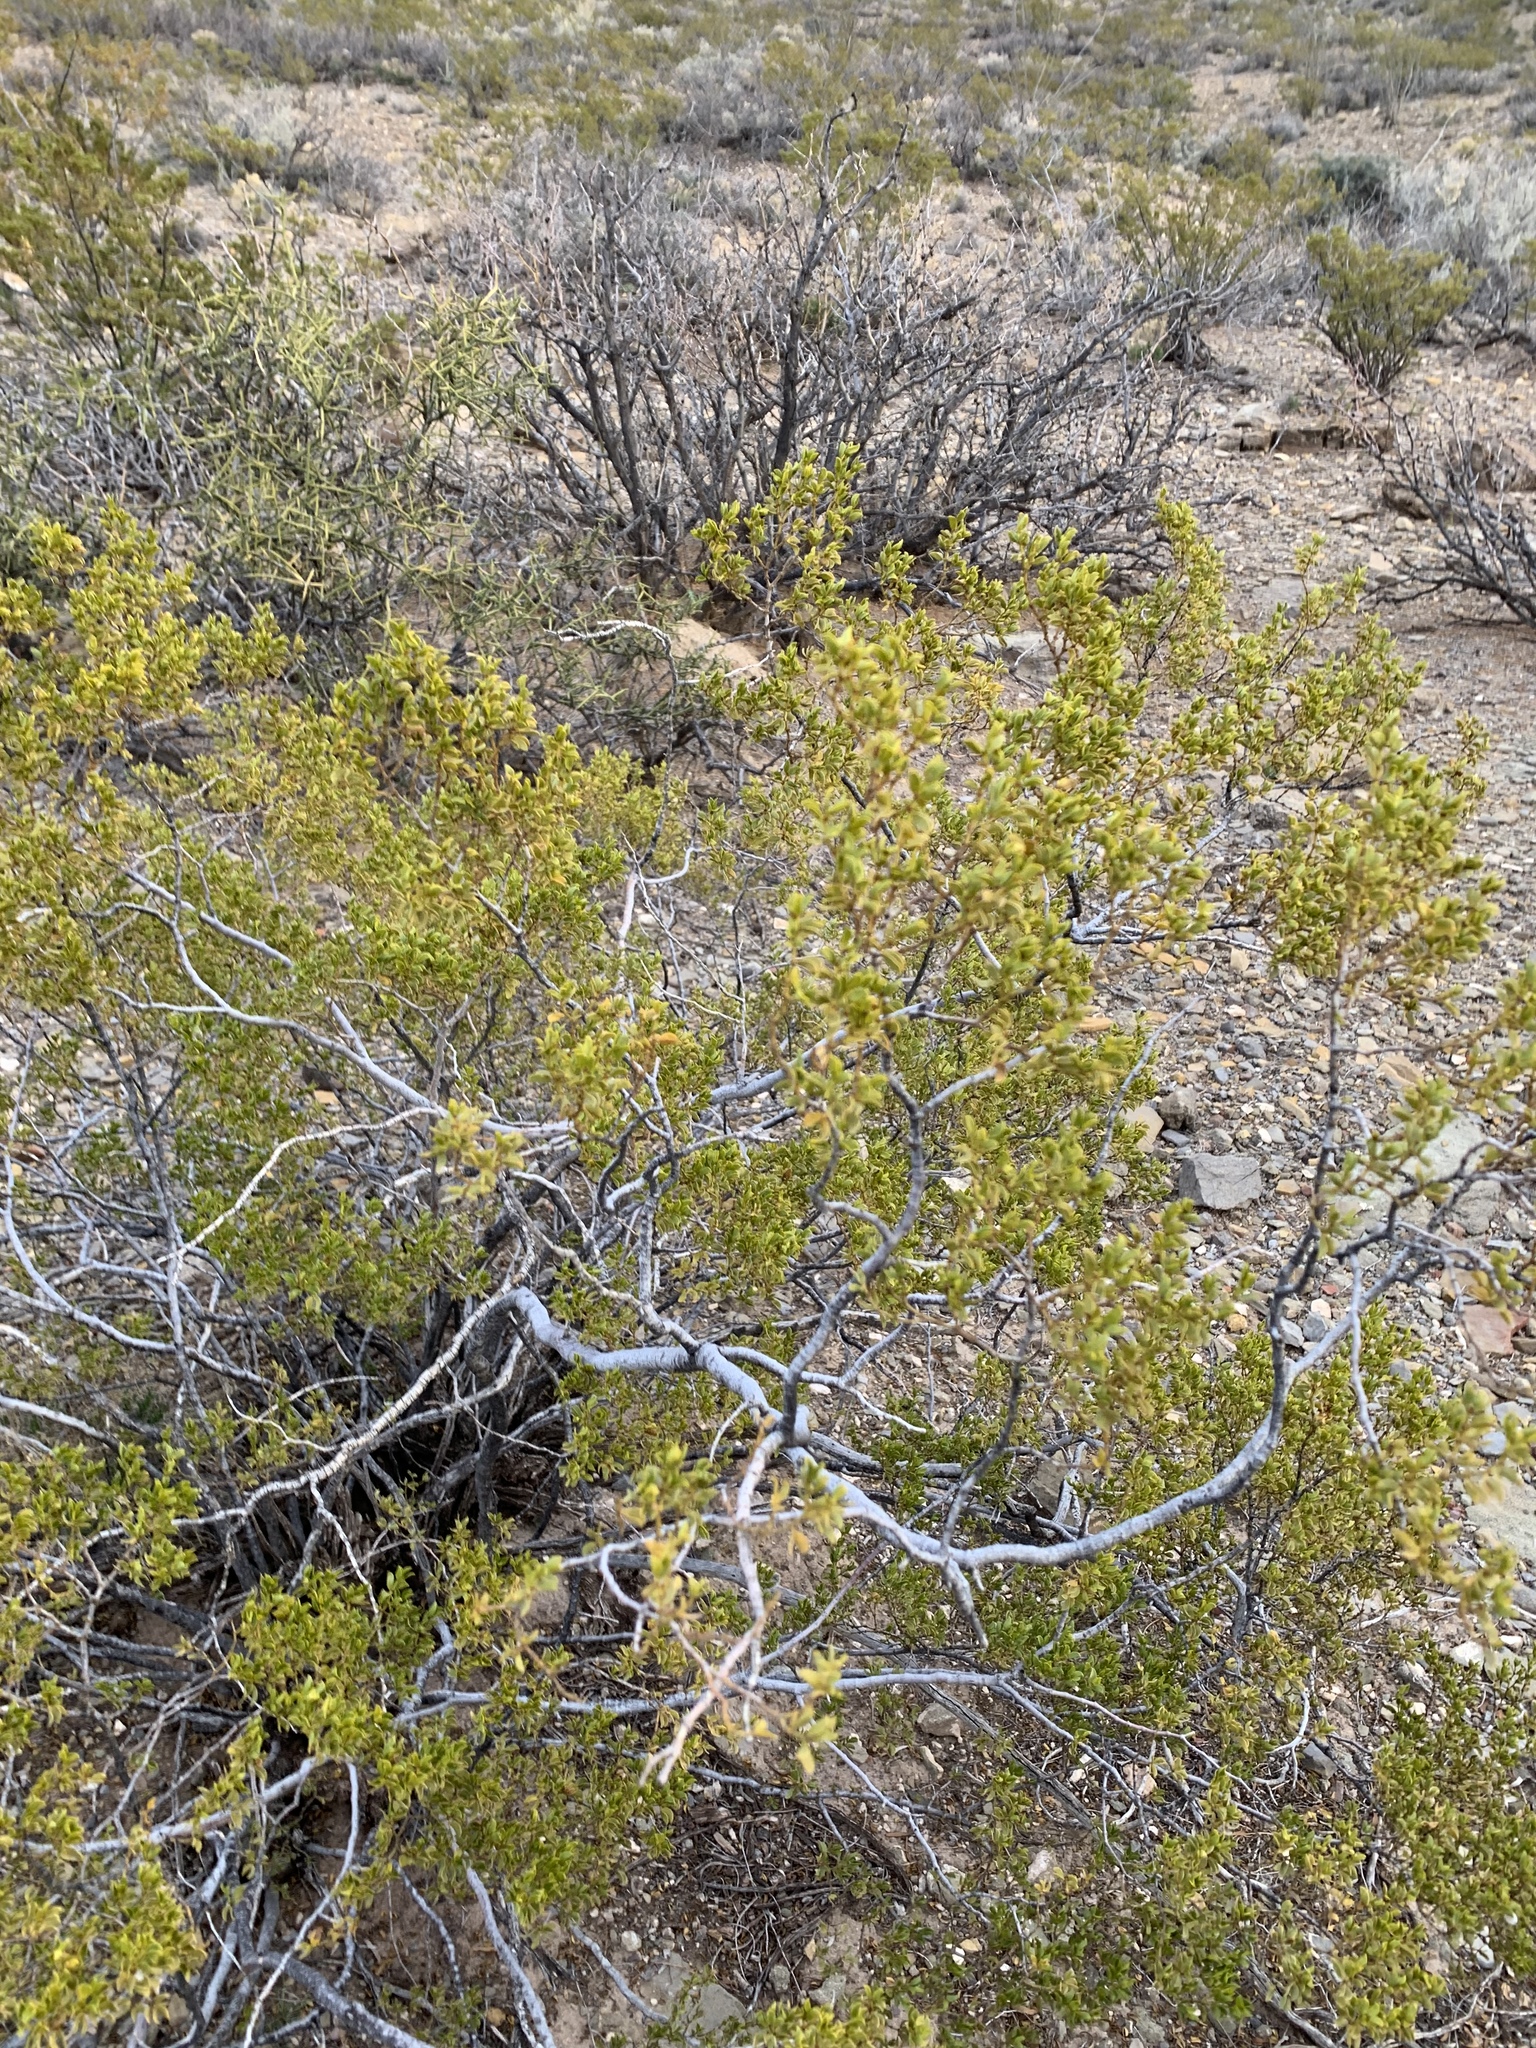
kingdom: Plantae
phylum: Tracheophyta
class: Magnoliopsida
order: Zygophyllales
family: Zygophyllaceae
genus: Larrea
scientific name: Larrea tridentata
